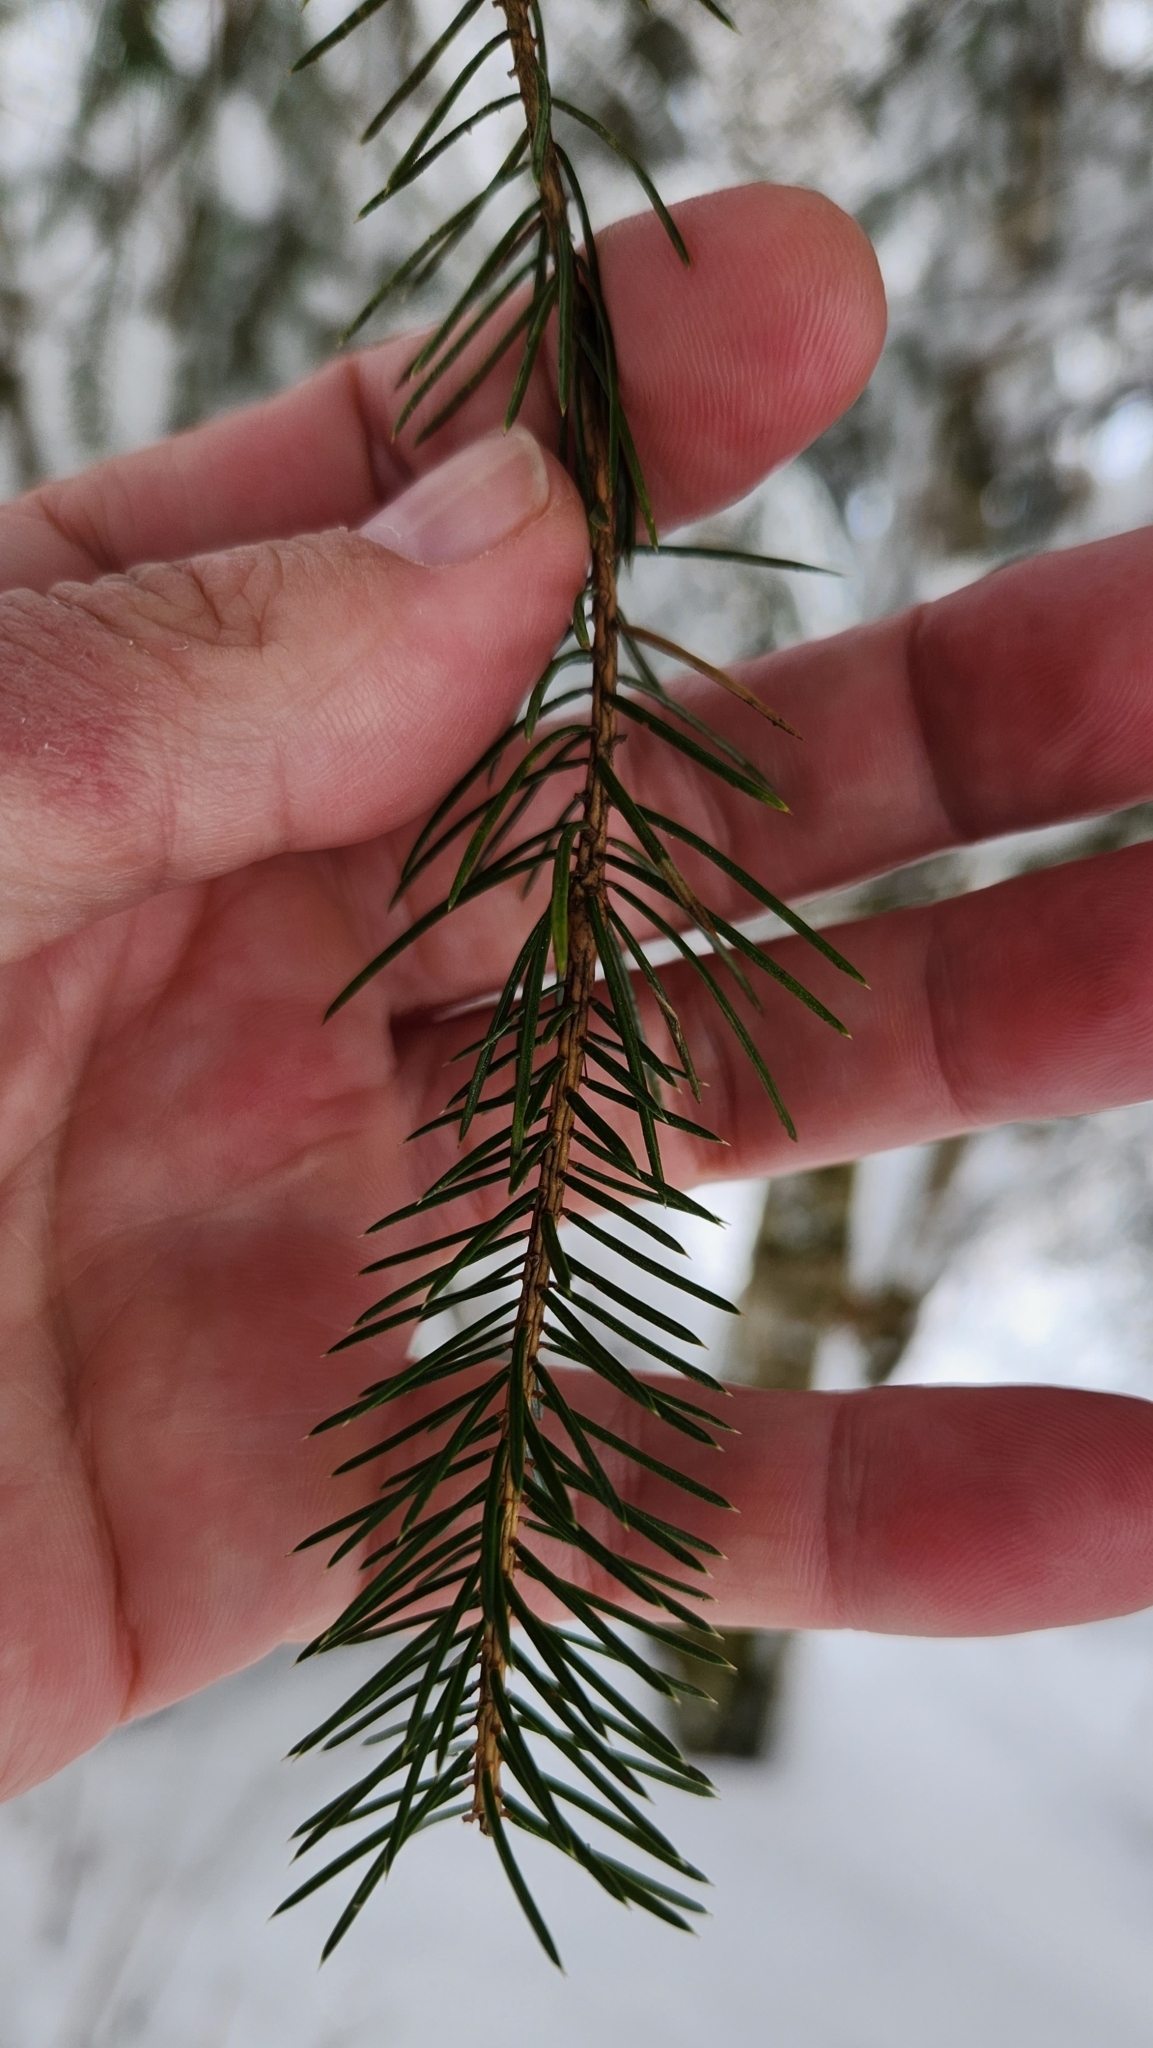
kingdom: Plantae
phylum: Tracheophyta
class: Pinopsida
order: Pinales
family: Pinaceae
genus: Picea
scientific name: Picea sitchensis
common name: Sitka spruce
